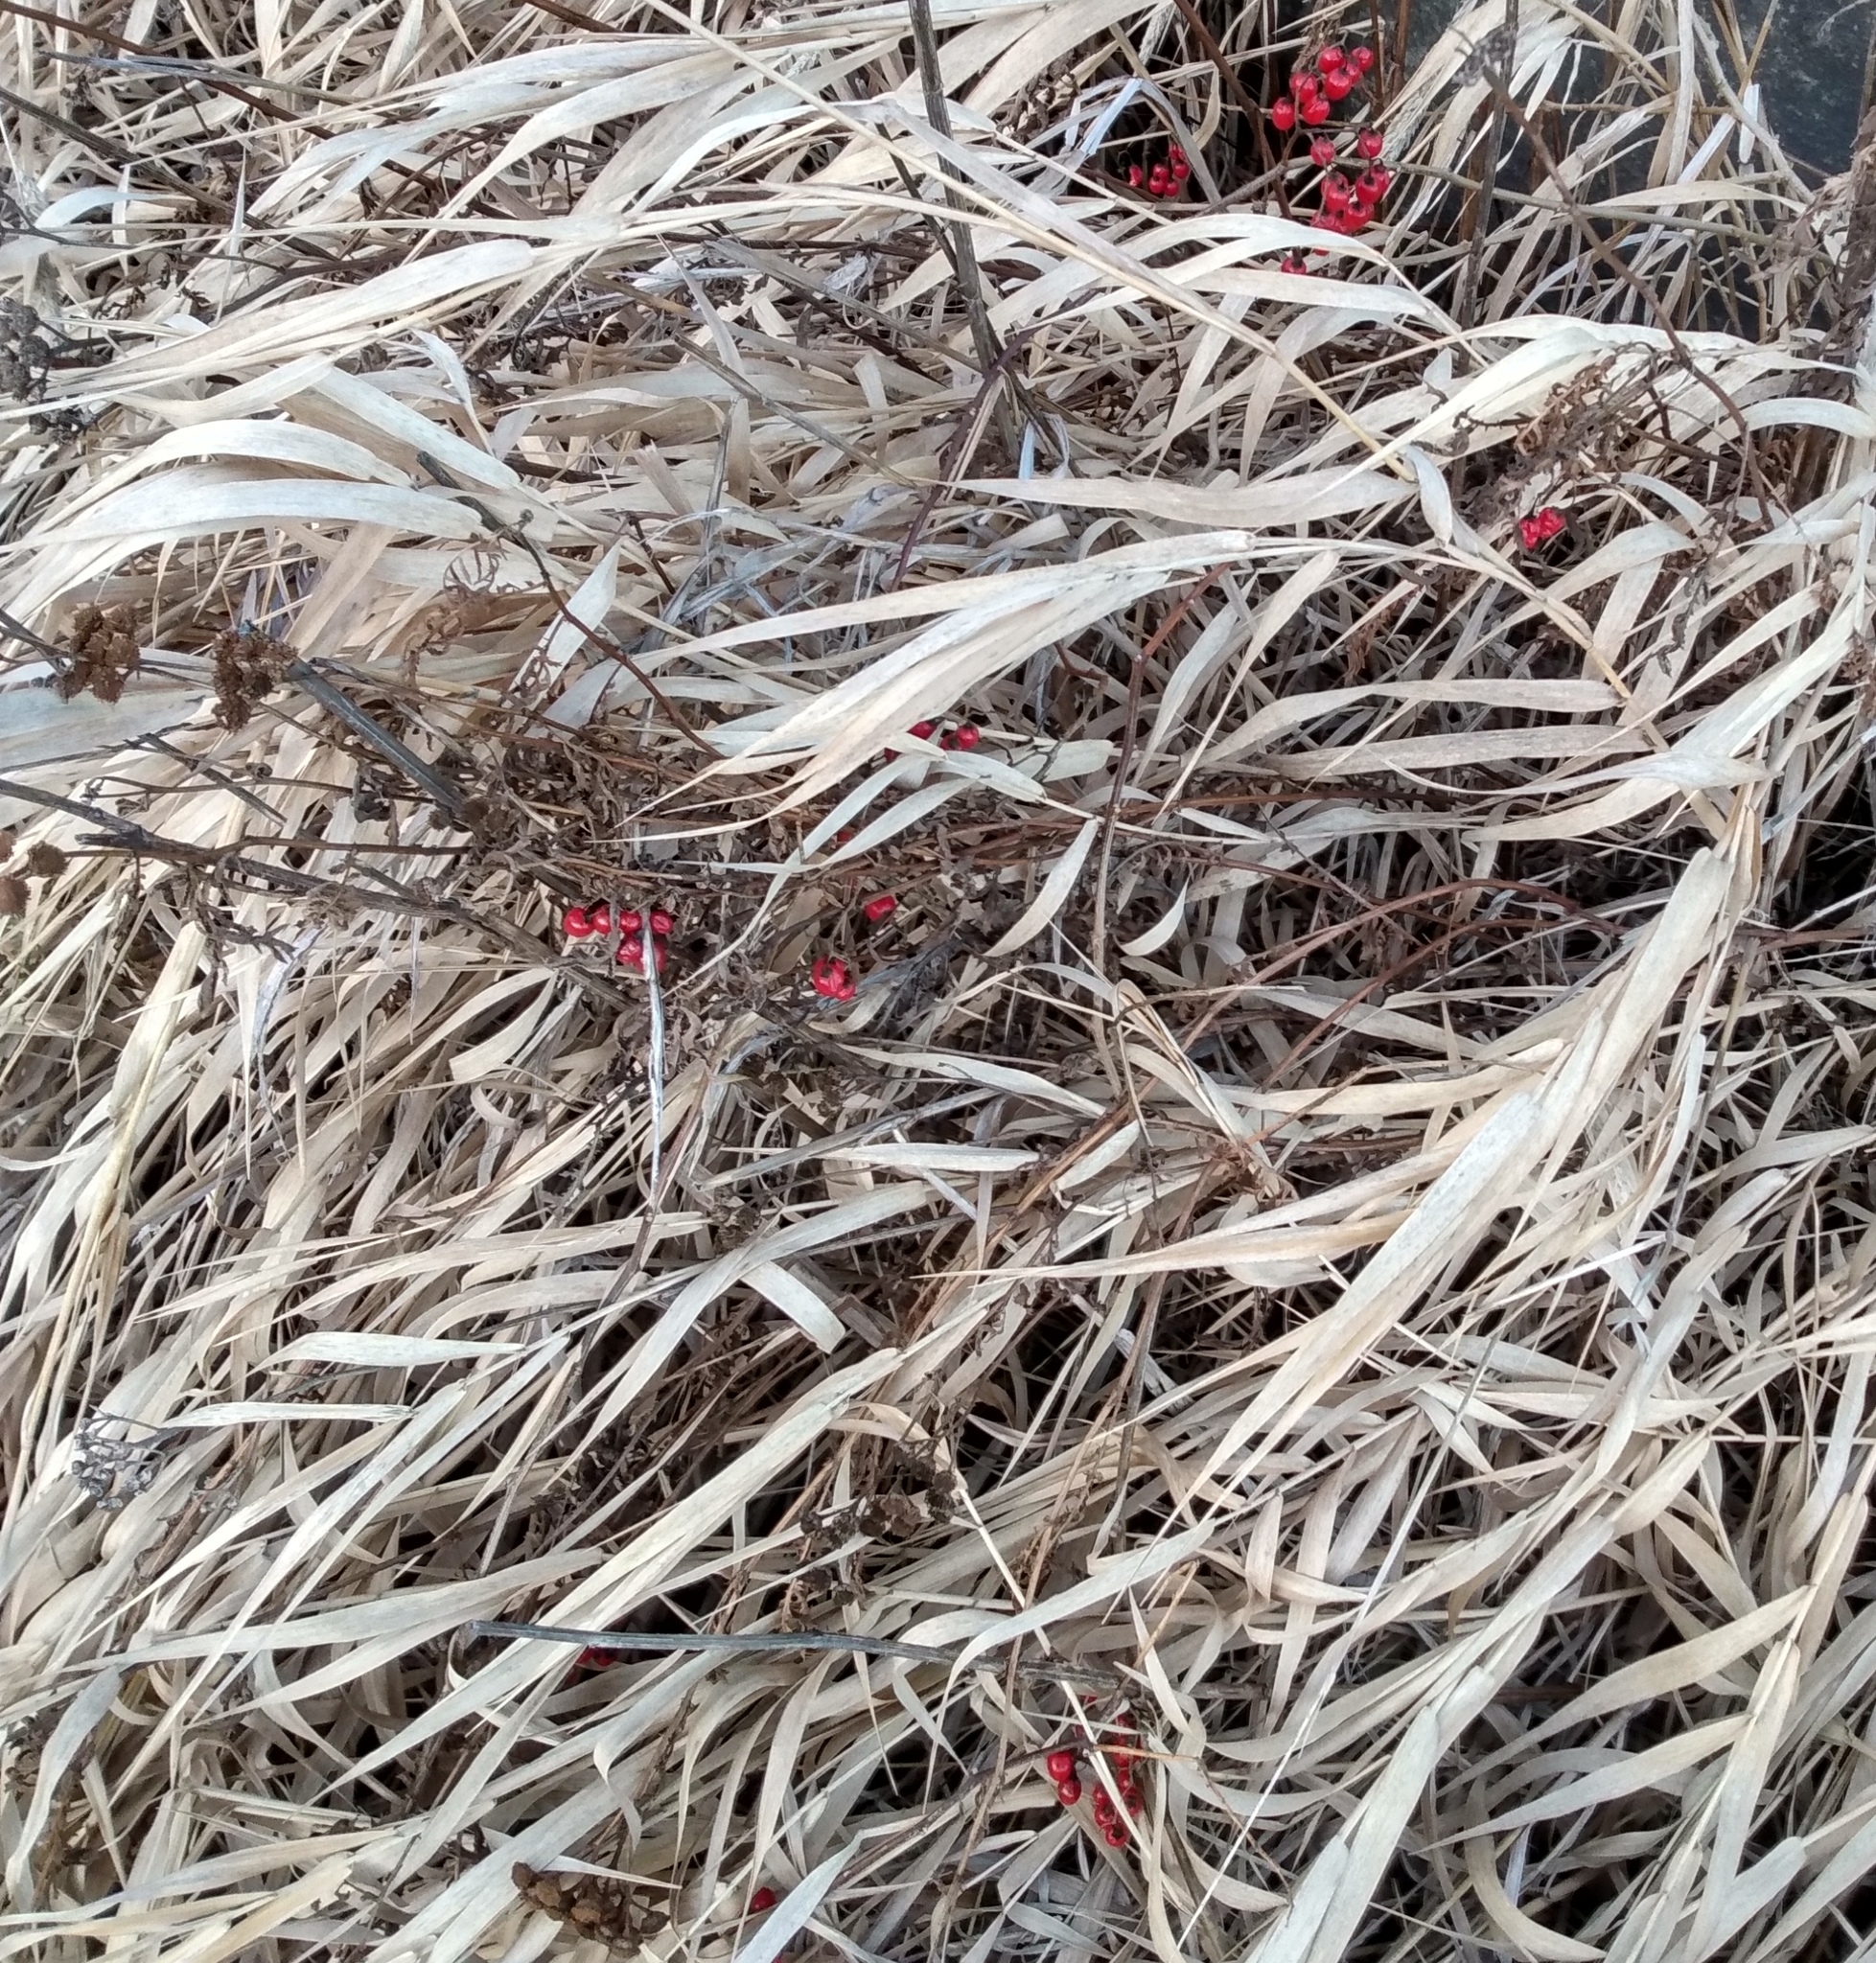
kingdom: Plantae
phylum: Tracheophyta
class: Magnoliopsida
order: Solanales
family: Solanaceae
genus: Solanum
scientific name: Solanum dulcamara
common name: Climbing nightshade
